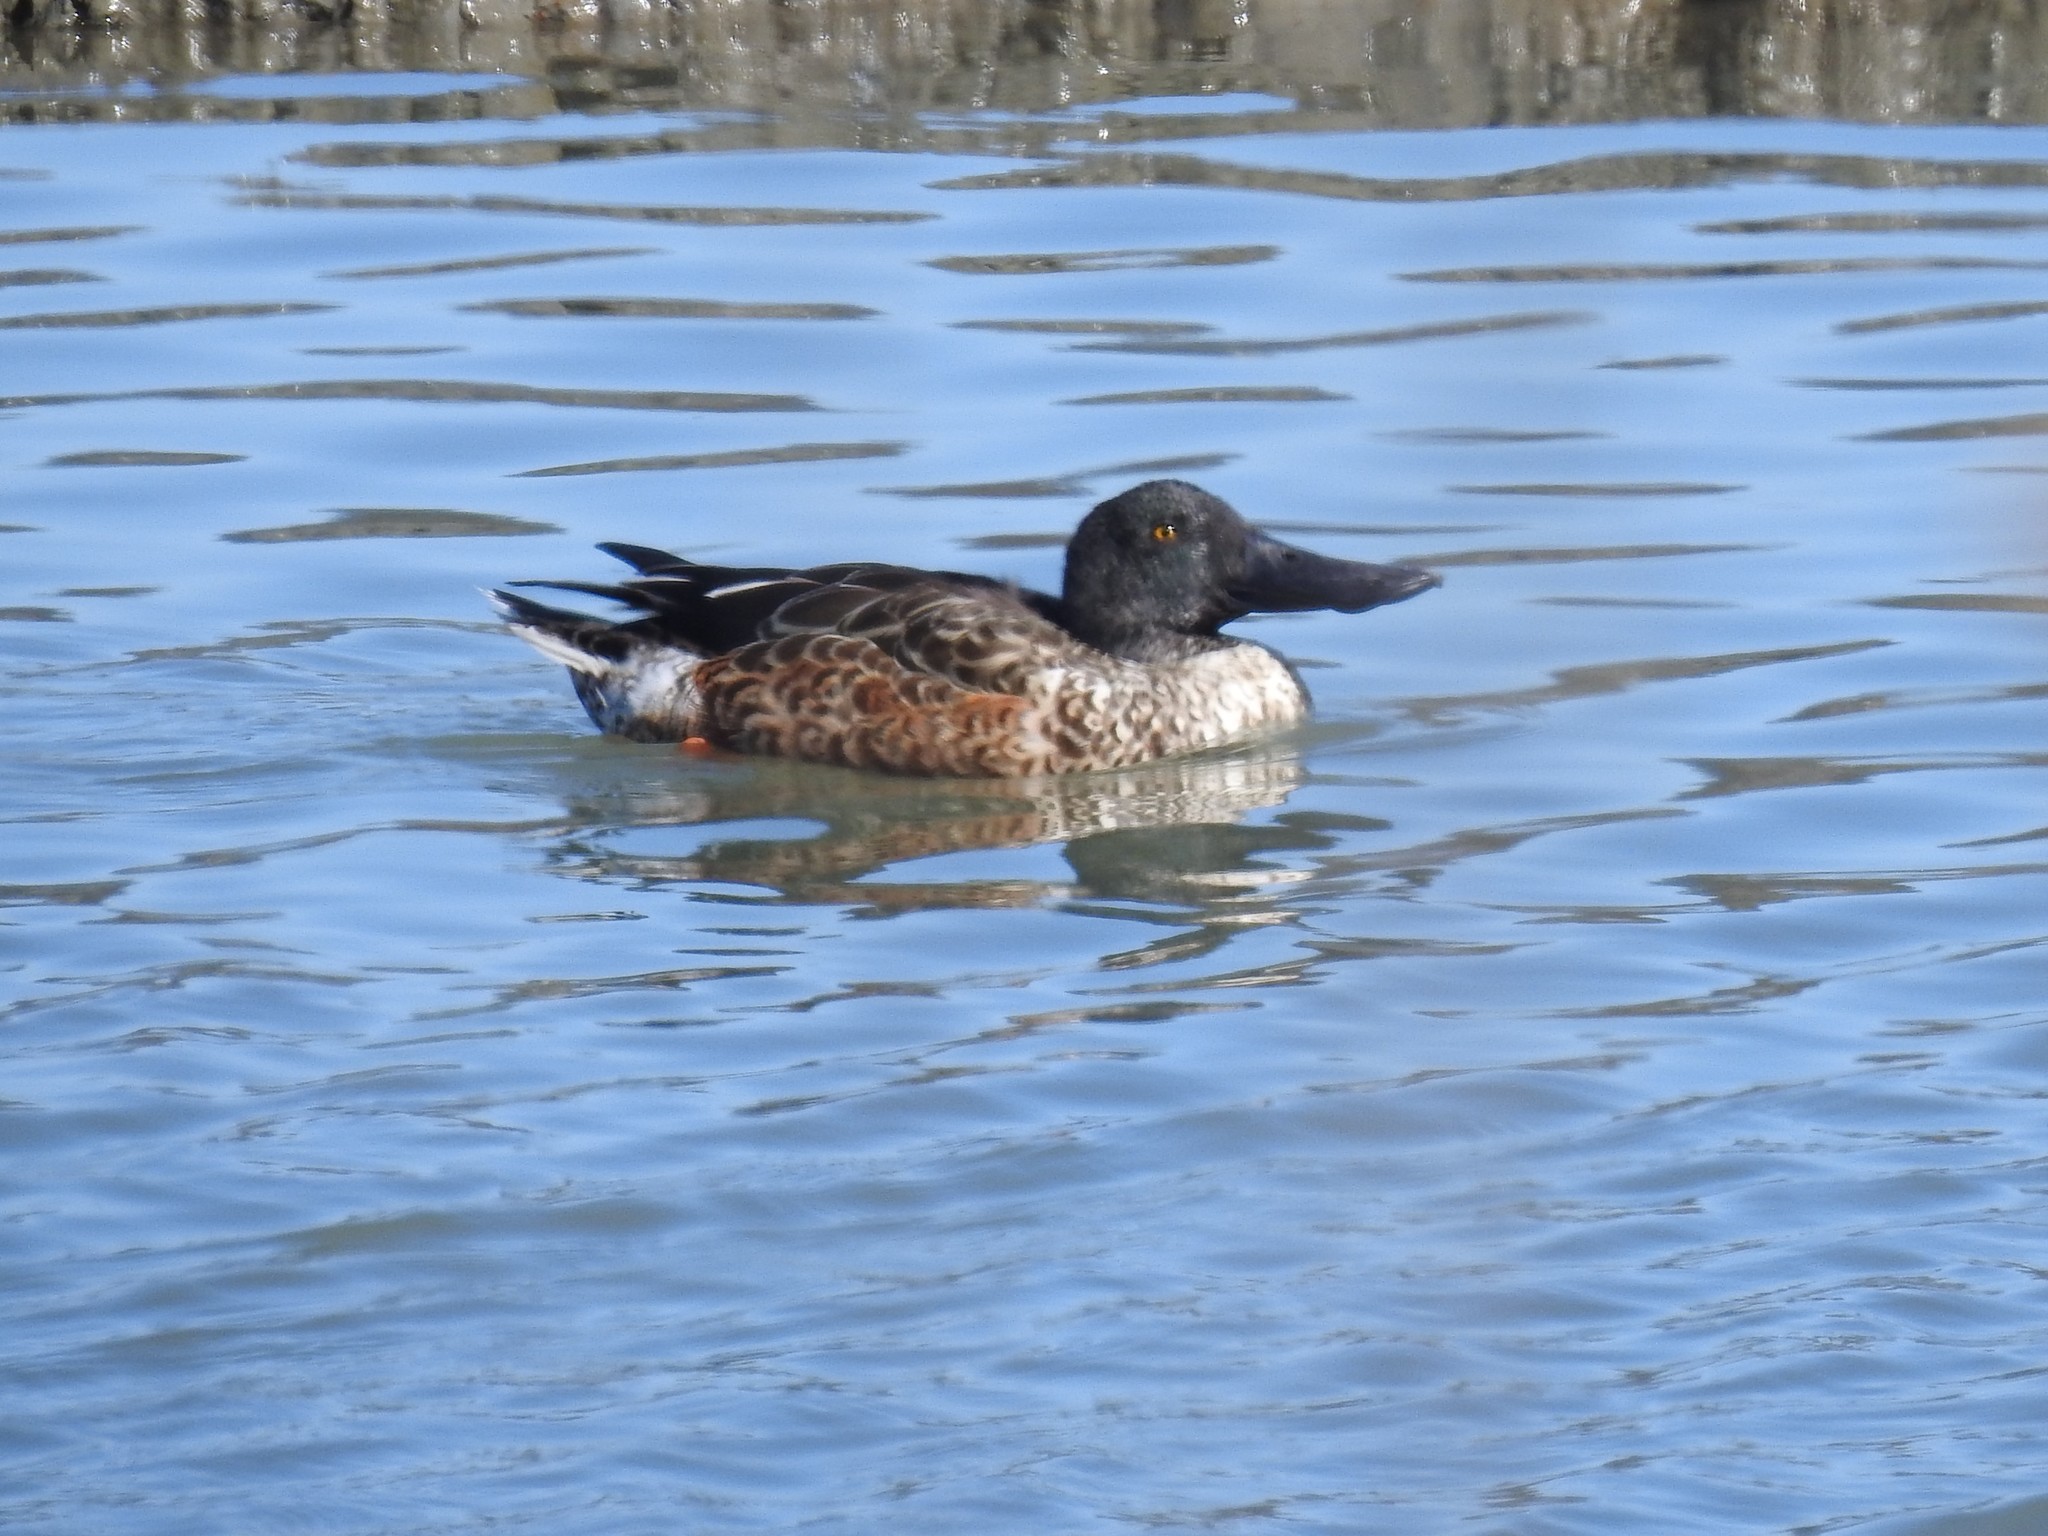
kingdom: Animalia
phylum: Chordata
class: Aves
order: Anseriformes
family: Anatidae
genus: Spatula
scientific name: Spatula clypeata
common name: Northern shoveler
